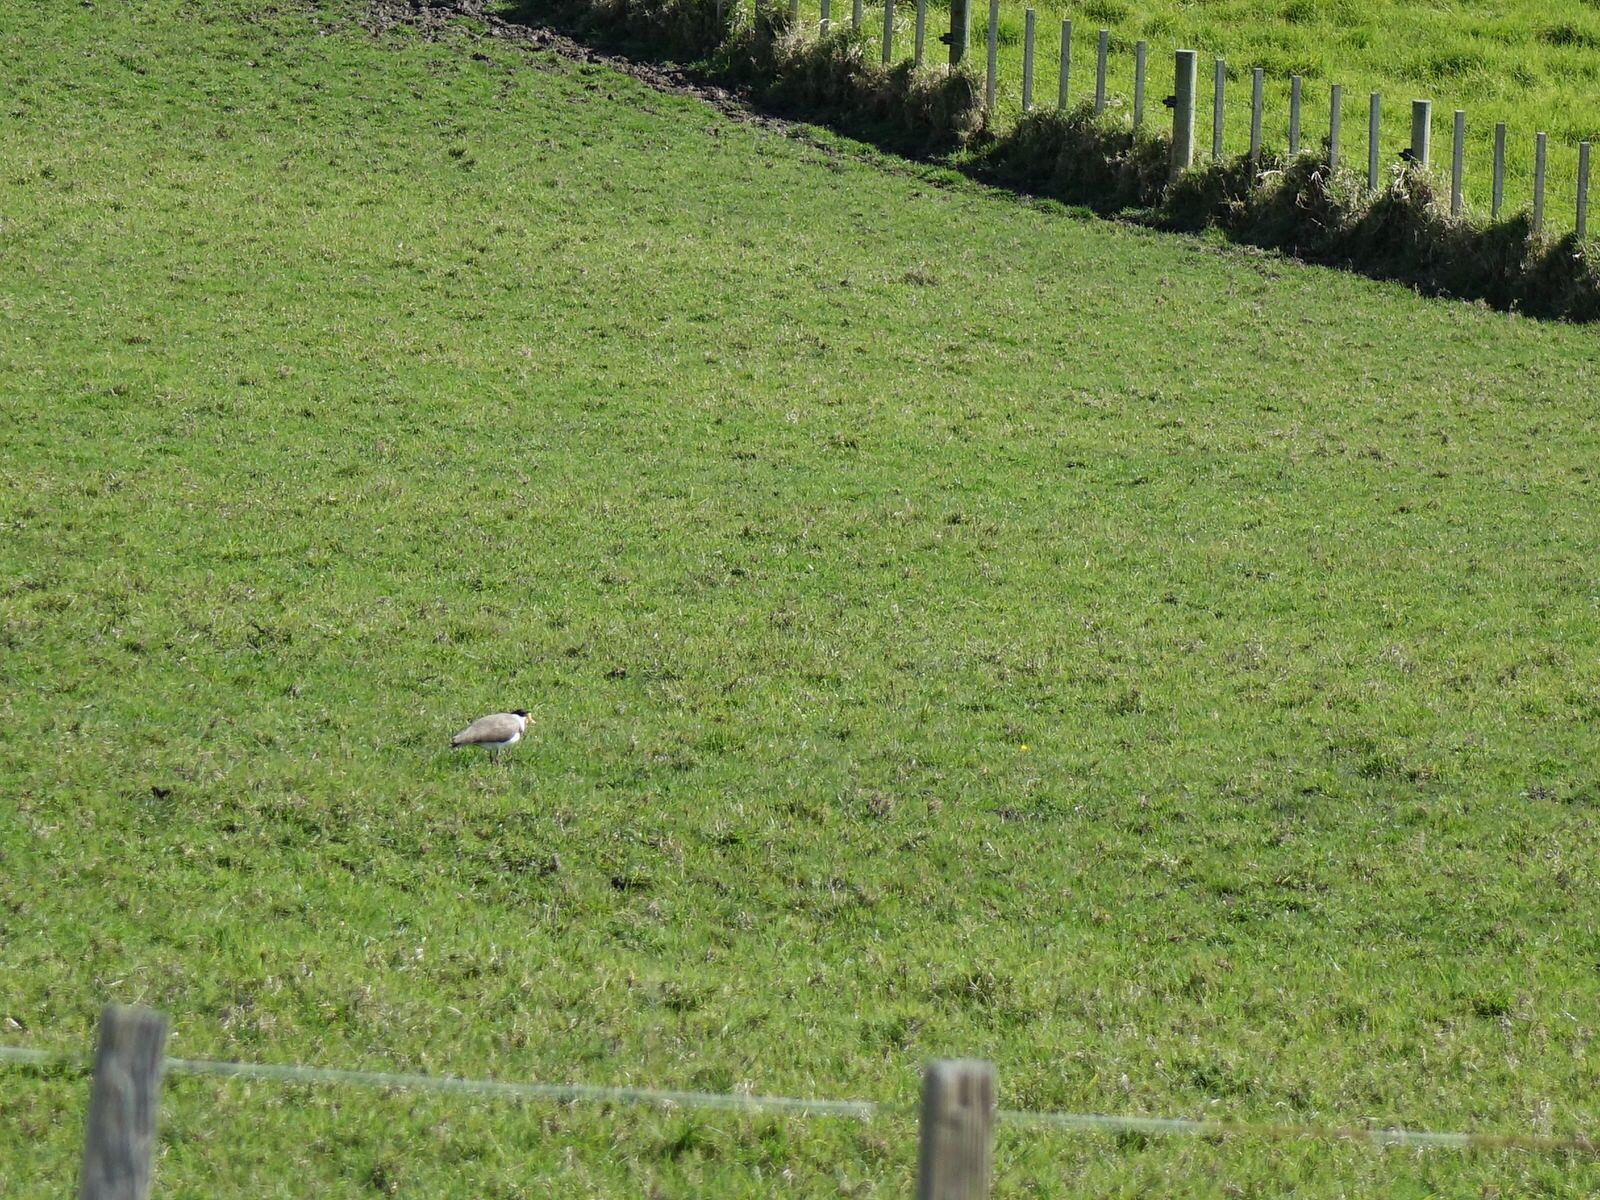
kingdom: Animalia
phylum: Chordata
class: Aves
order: Charadriiformes
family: Charadriidae
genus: Vanellus
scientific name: Vanellus miles
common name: Masked lapwing
